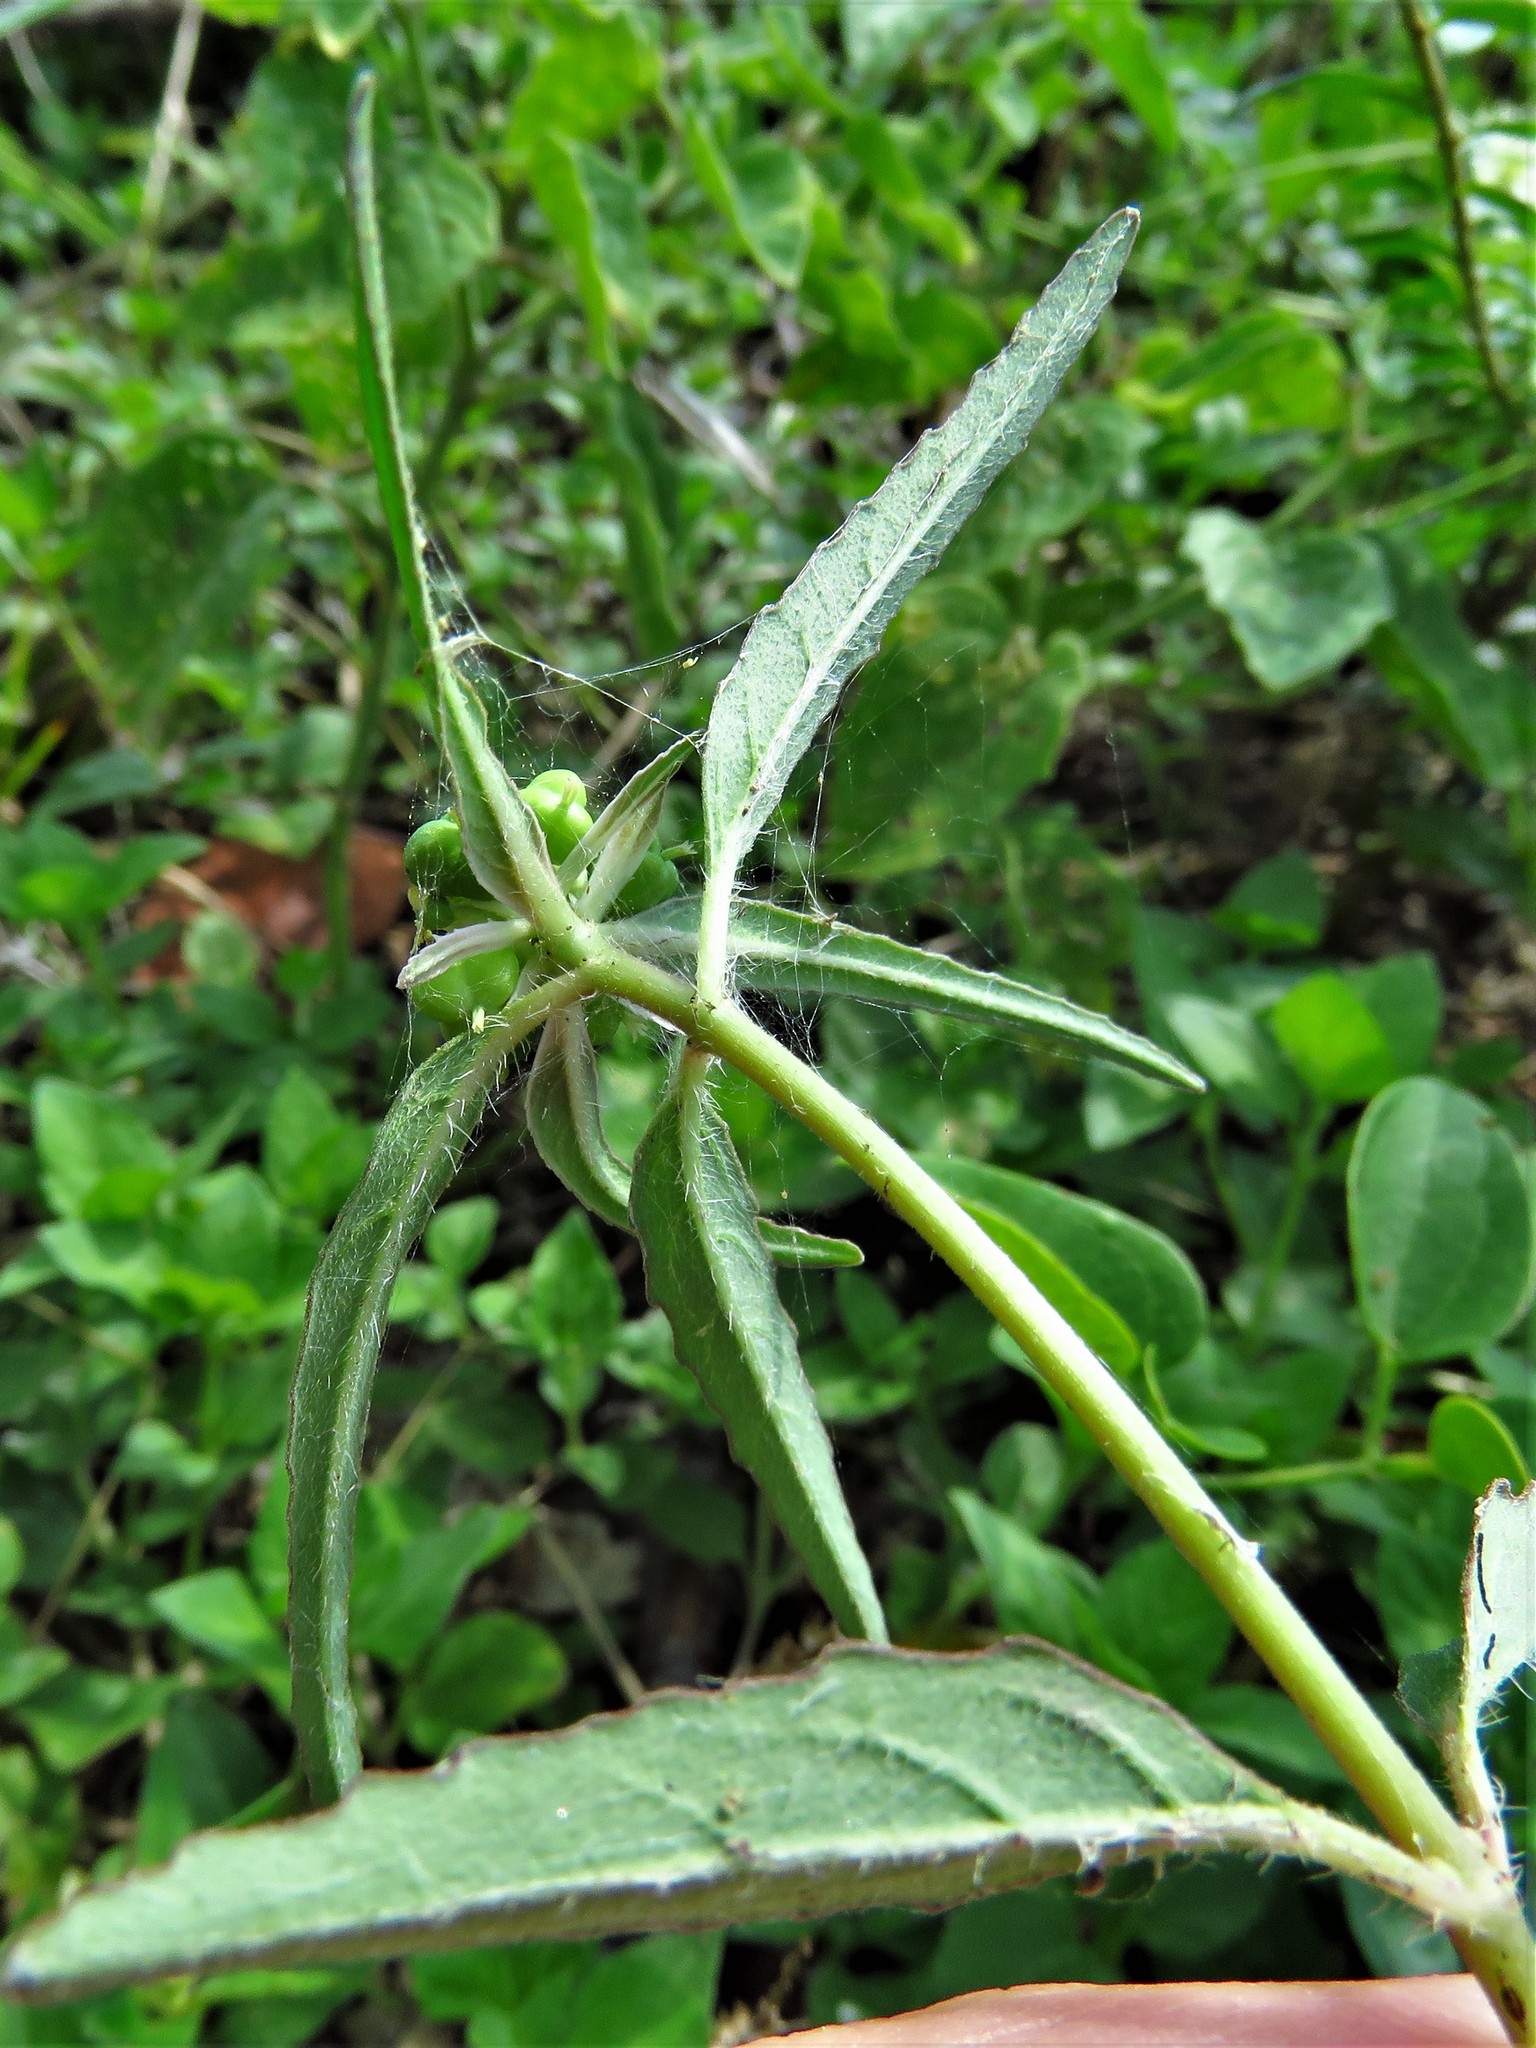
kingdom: Plantae
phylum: Tracheophyta
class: Magnoliopsida
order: Malpighiales
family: Euphorbiaceae
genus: Euphorbia
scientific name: Euphorbia dentata
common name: Dentate spurge
